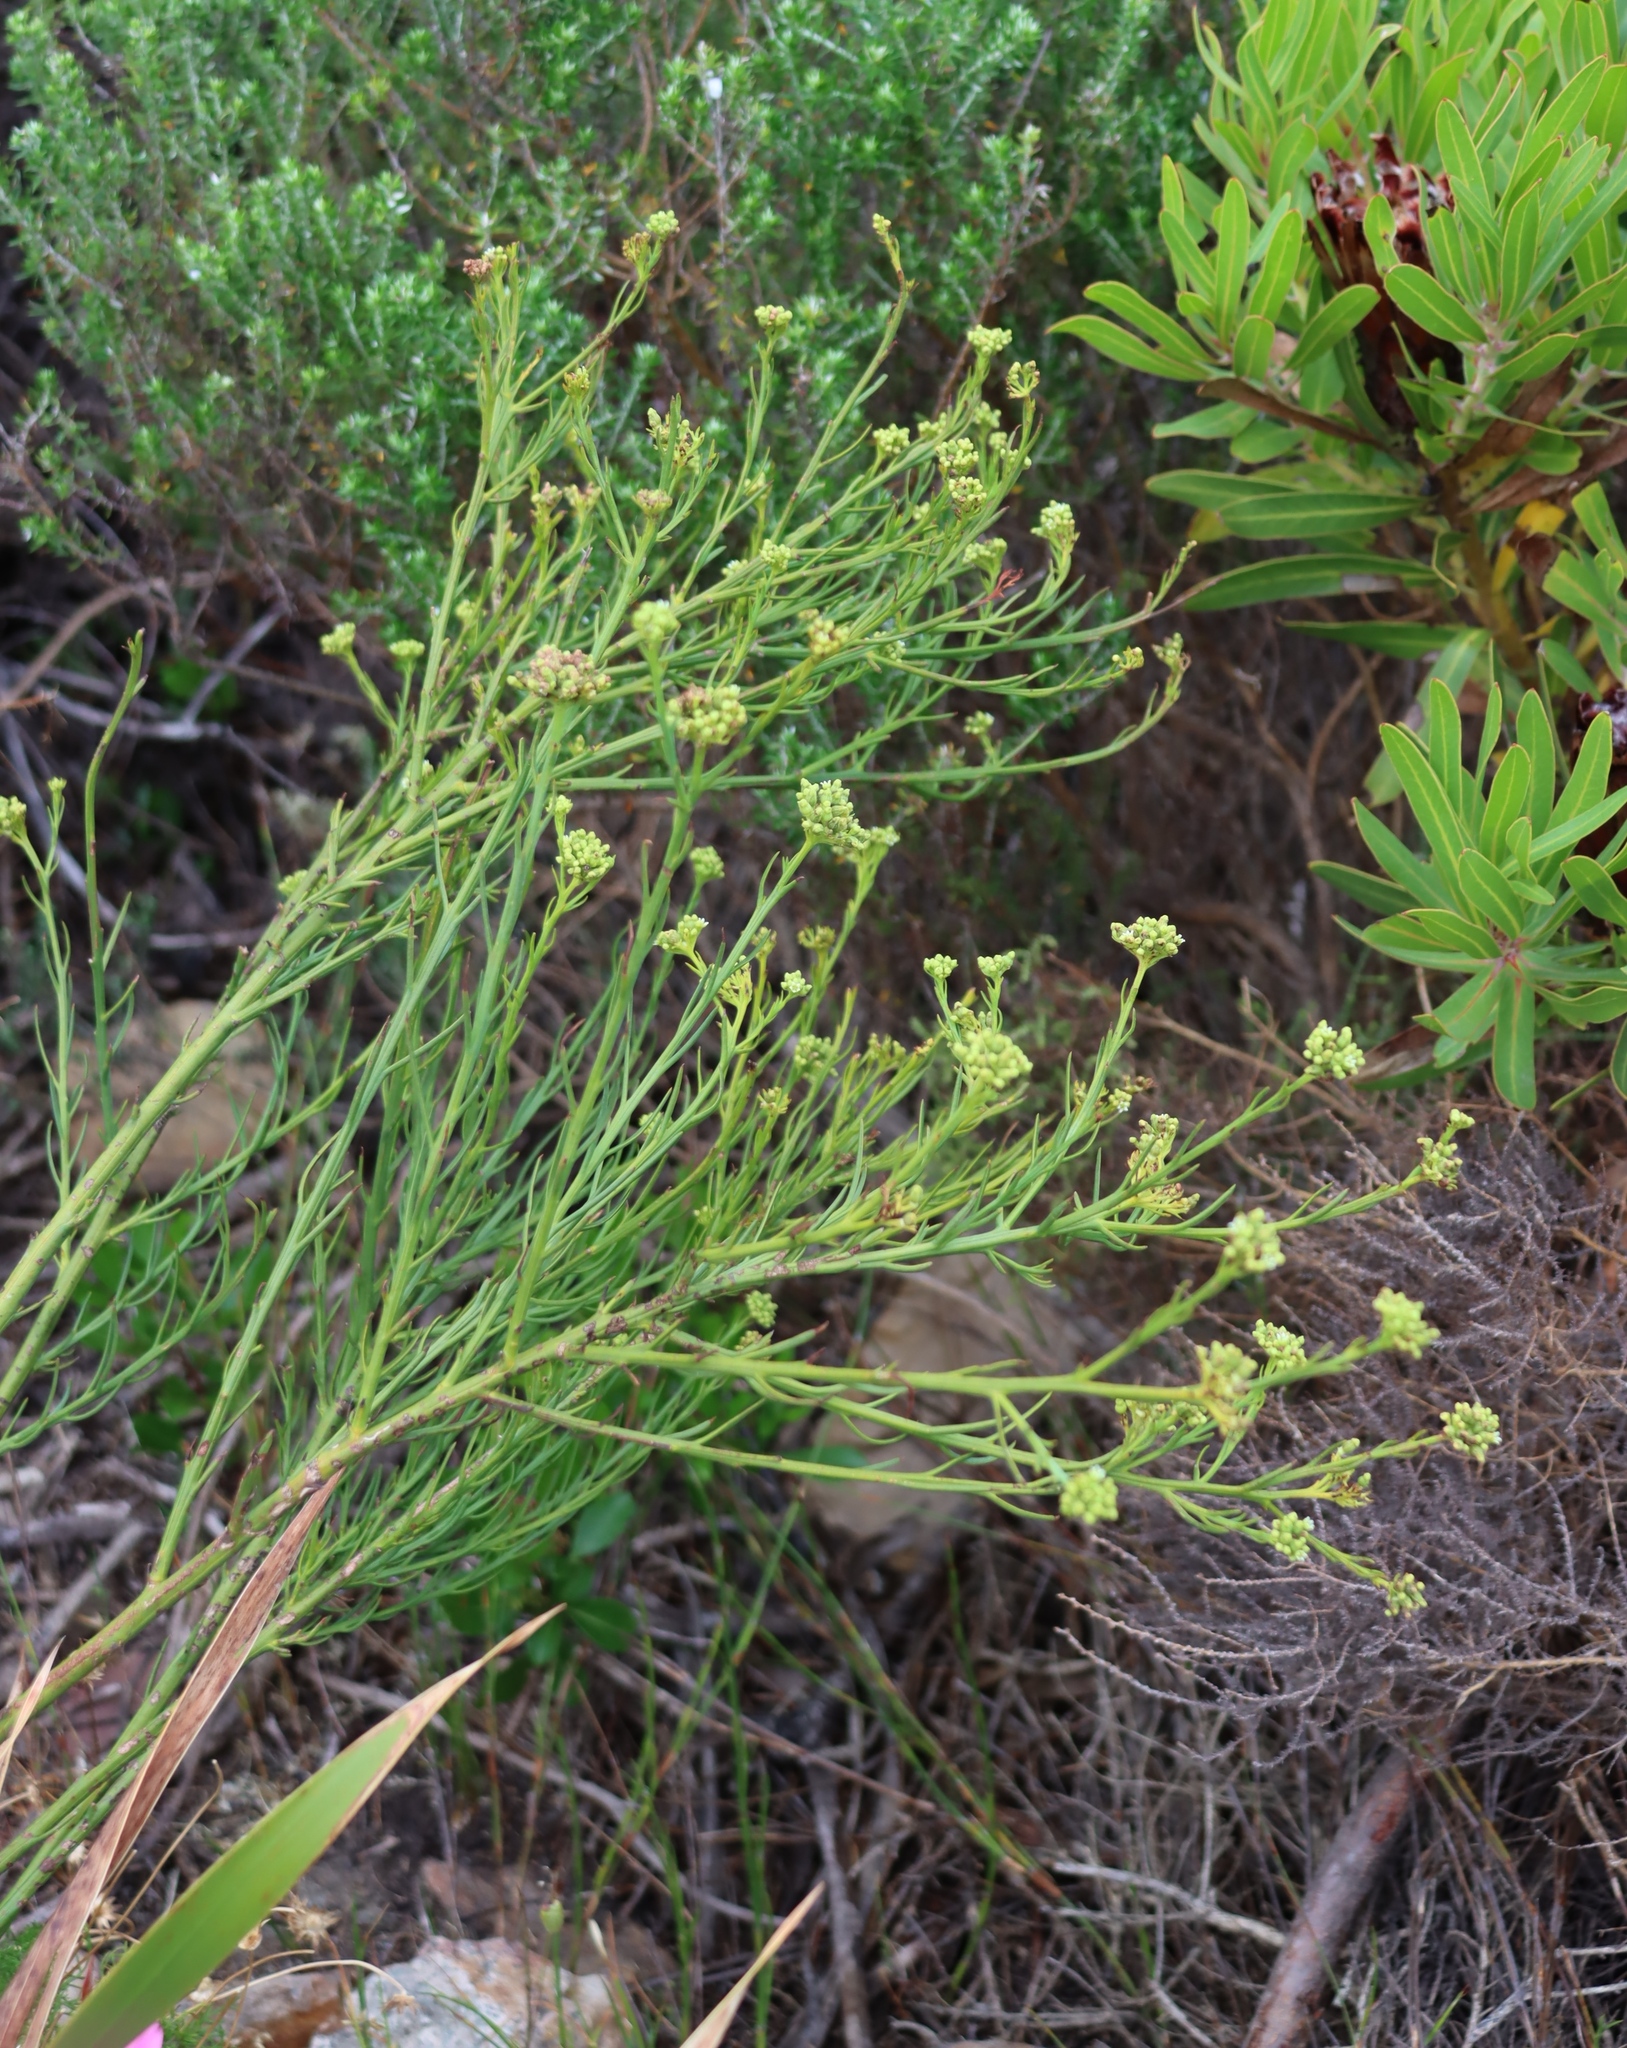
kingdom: Plantae
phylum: Tracheophyta
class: Magnoliopsida
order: Santalales
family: Thesiaceae
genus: Thesium
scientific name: Thesium strictum
